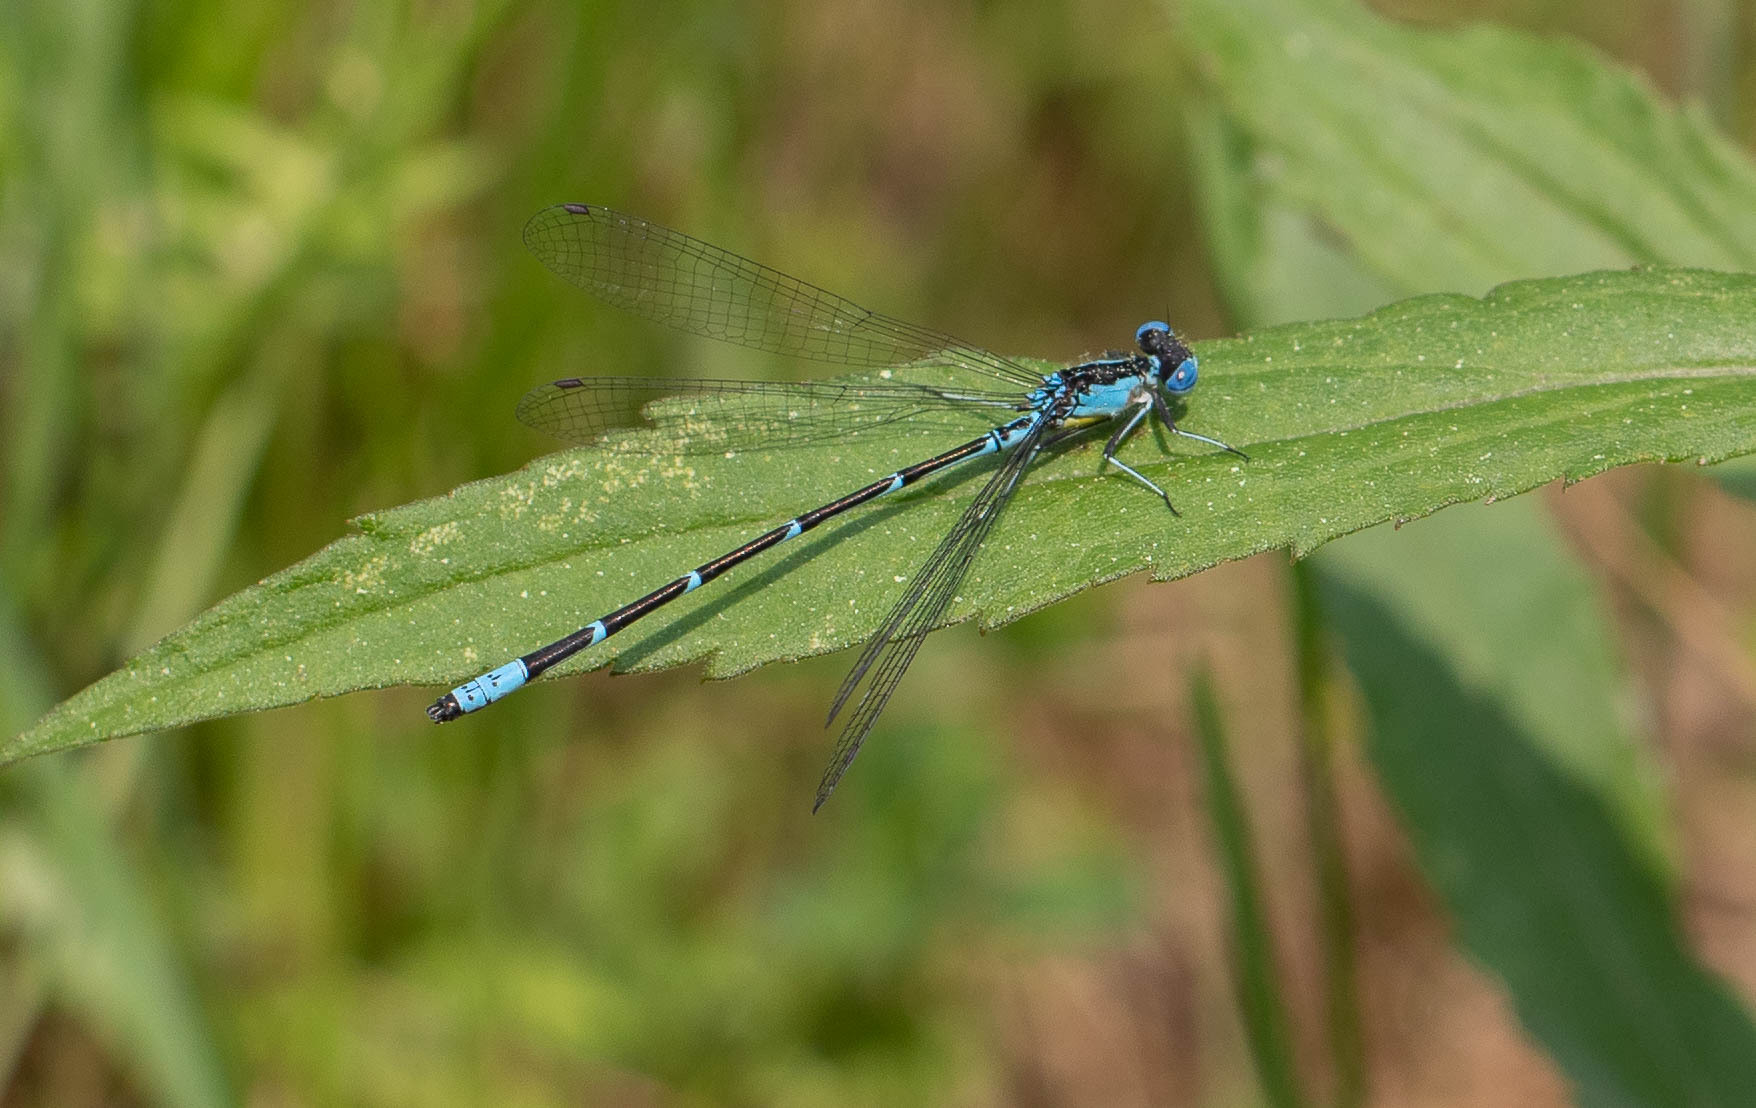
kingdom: Animalia
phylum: Arthropoda
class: Insecta
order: Odonata
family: Coenagrionidae
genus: Chromagrion
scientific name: Chromagrion conditum
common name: Aurora damsel
